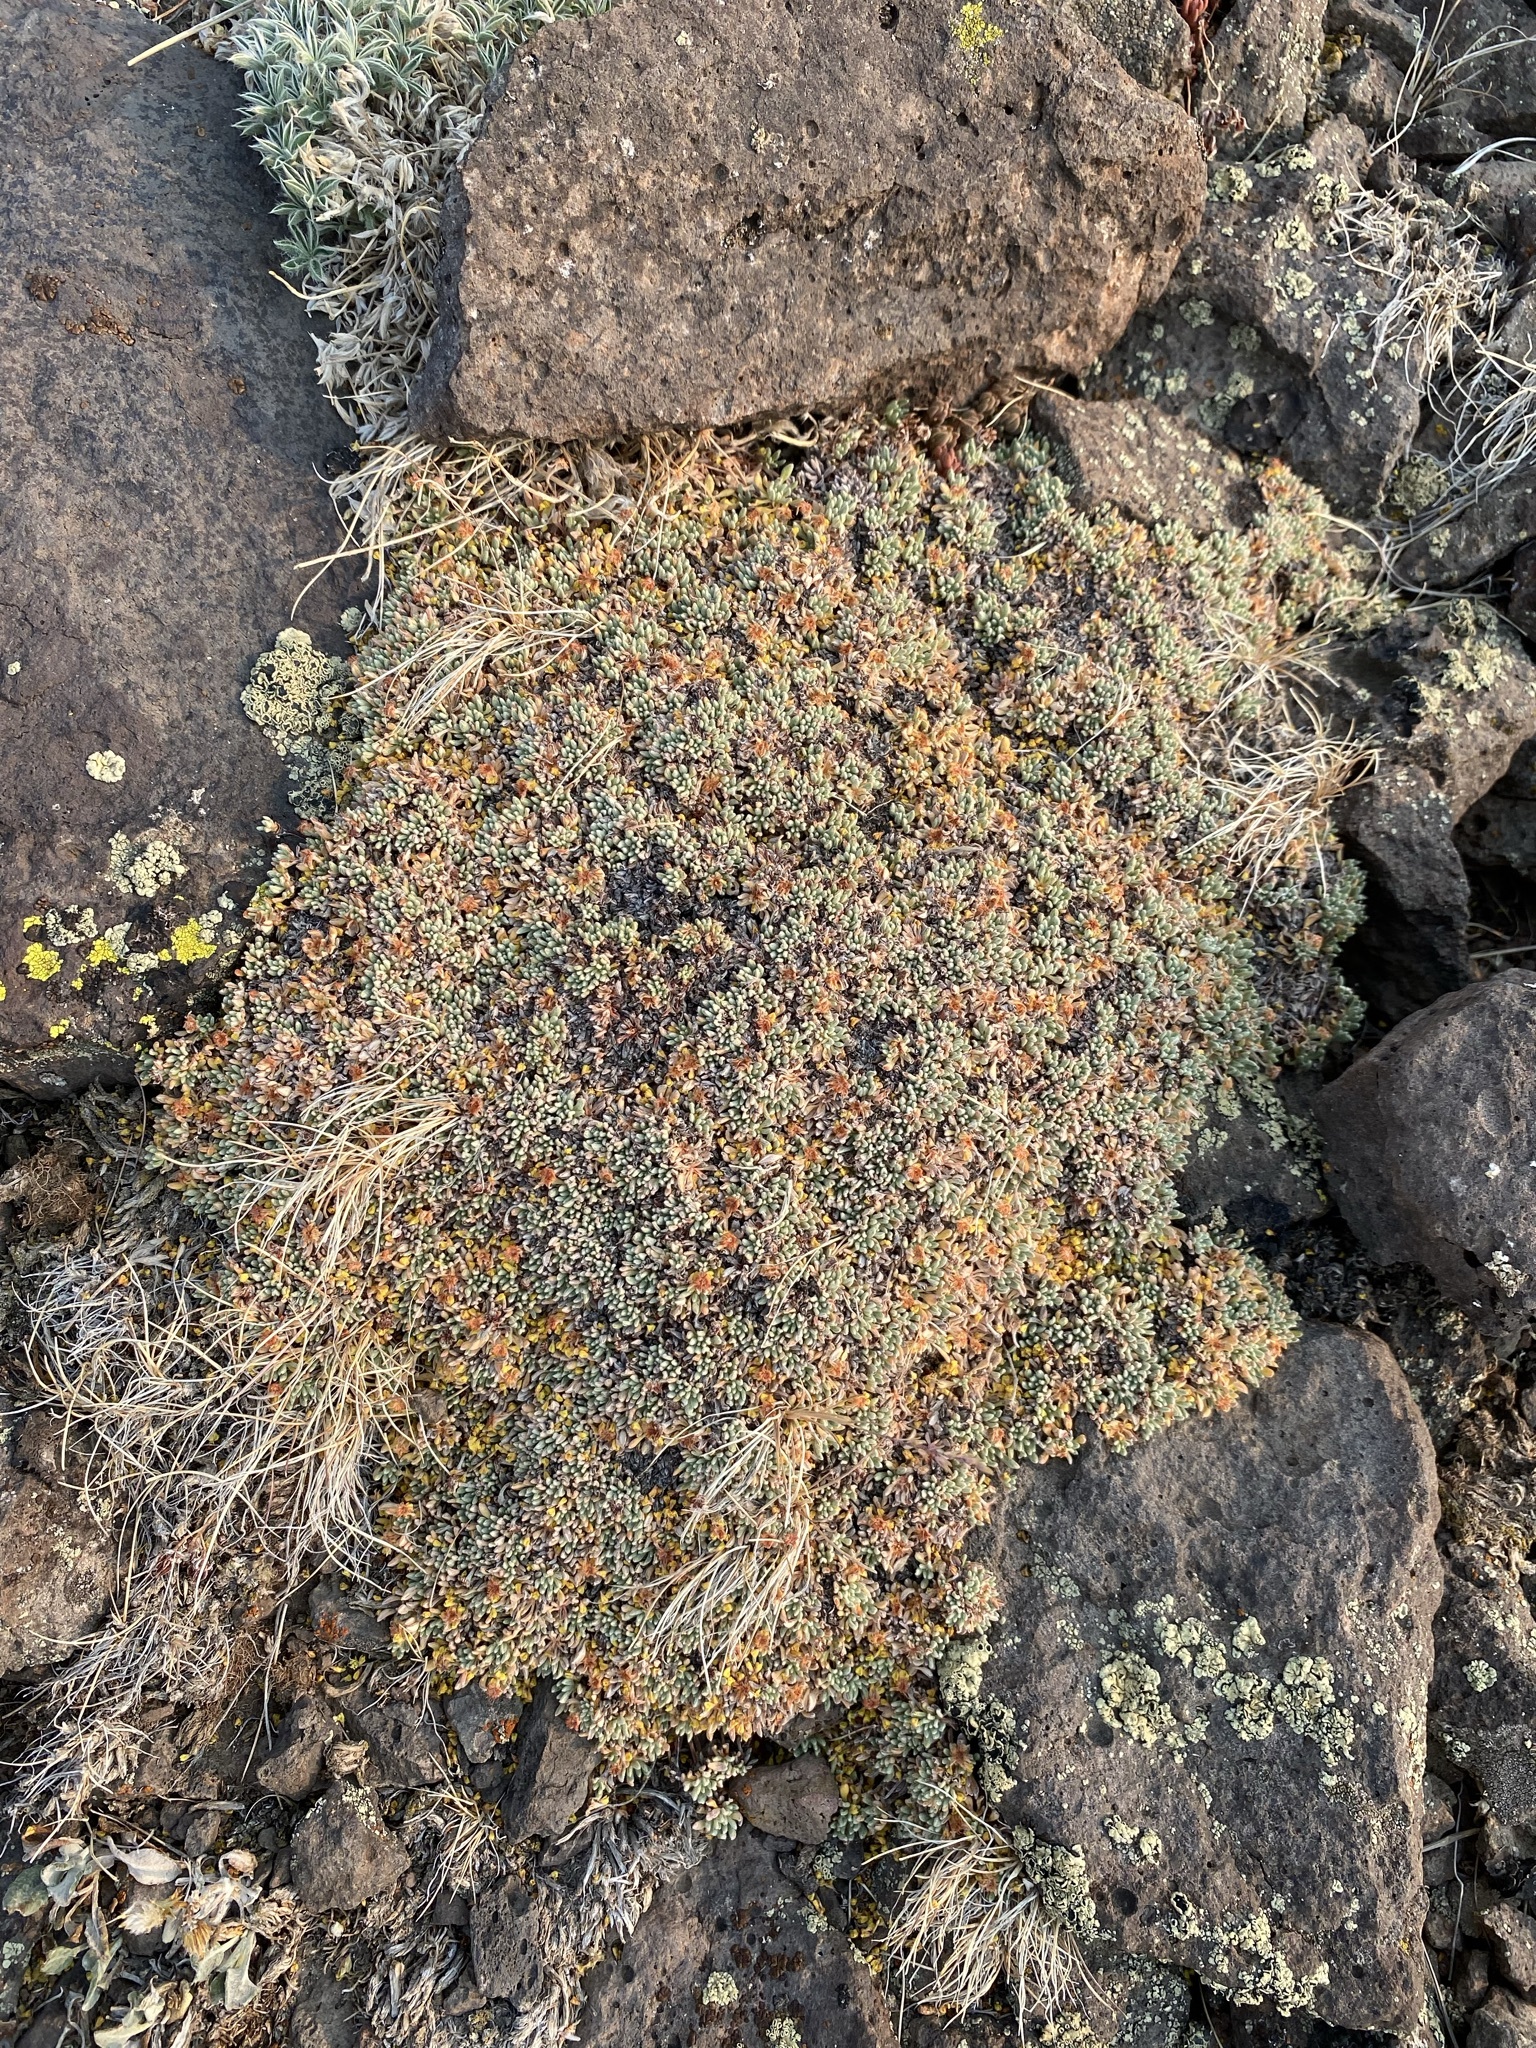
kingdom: Plantae
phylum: Tracheophyta
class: Magnoliopsida
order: Caryophyllales
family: Polygonaceae
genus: Eriogonum
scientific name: Eriogonum caespitosum
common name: Matted wild buckwheat
